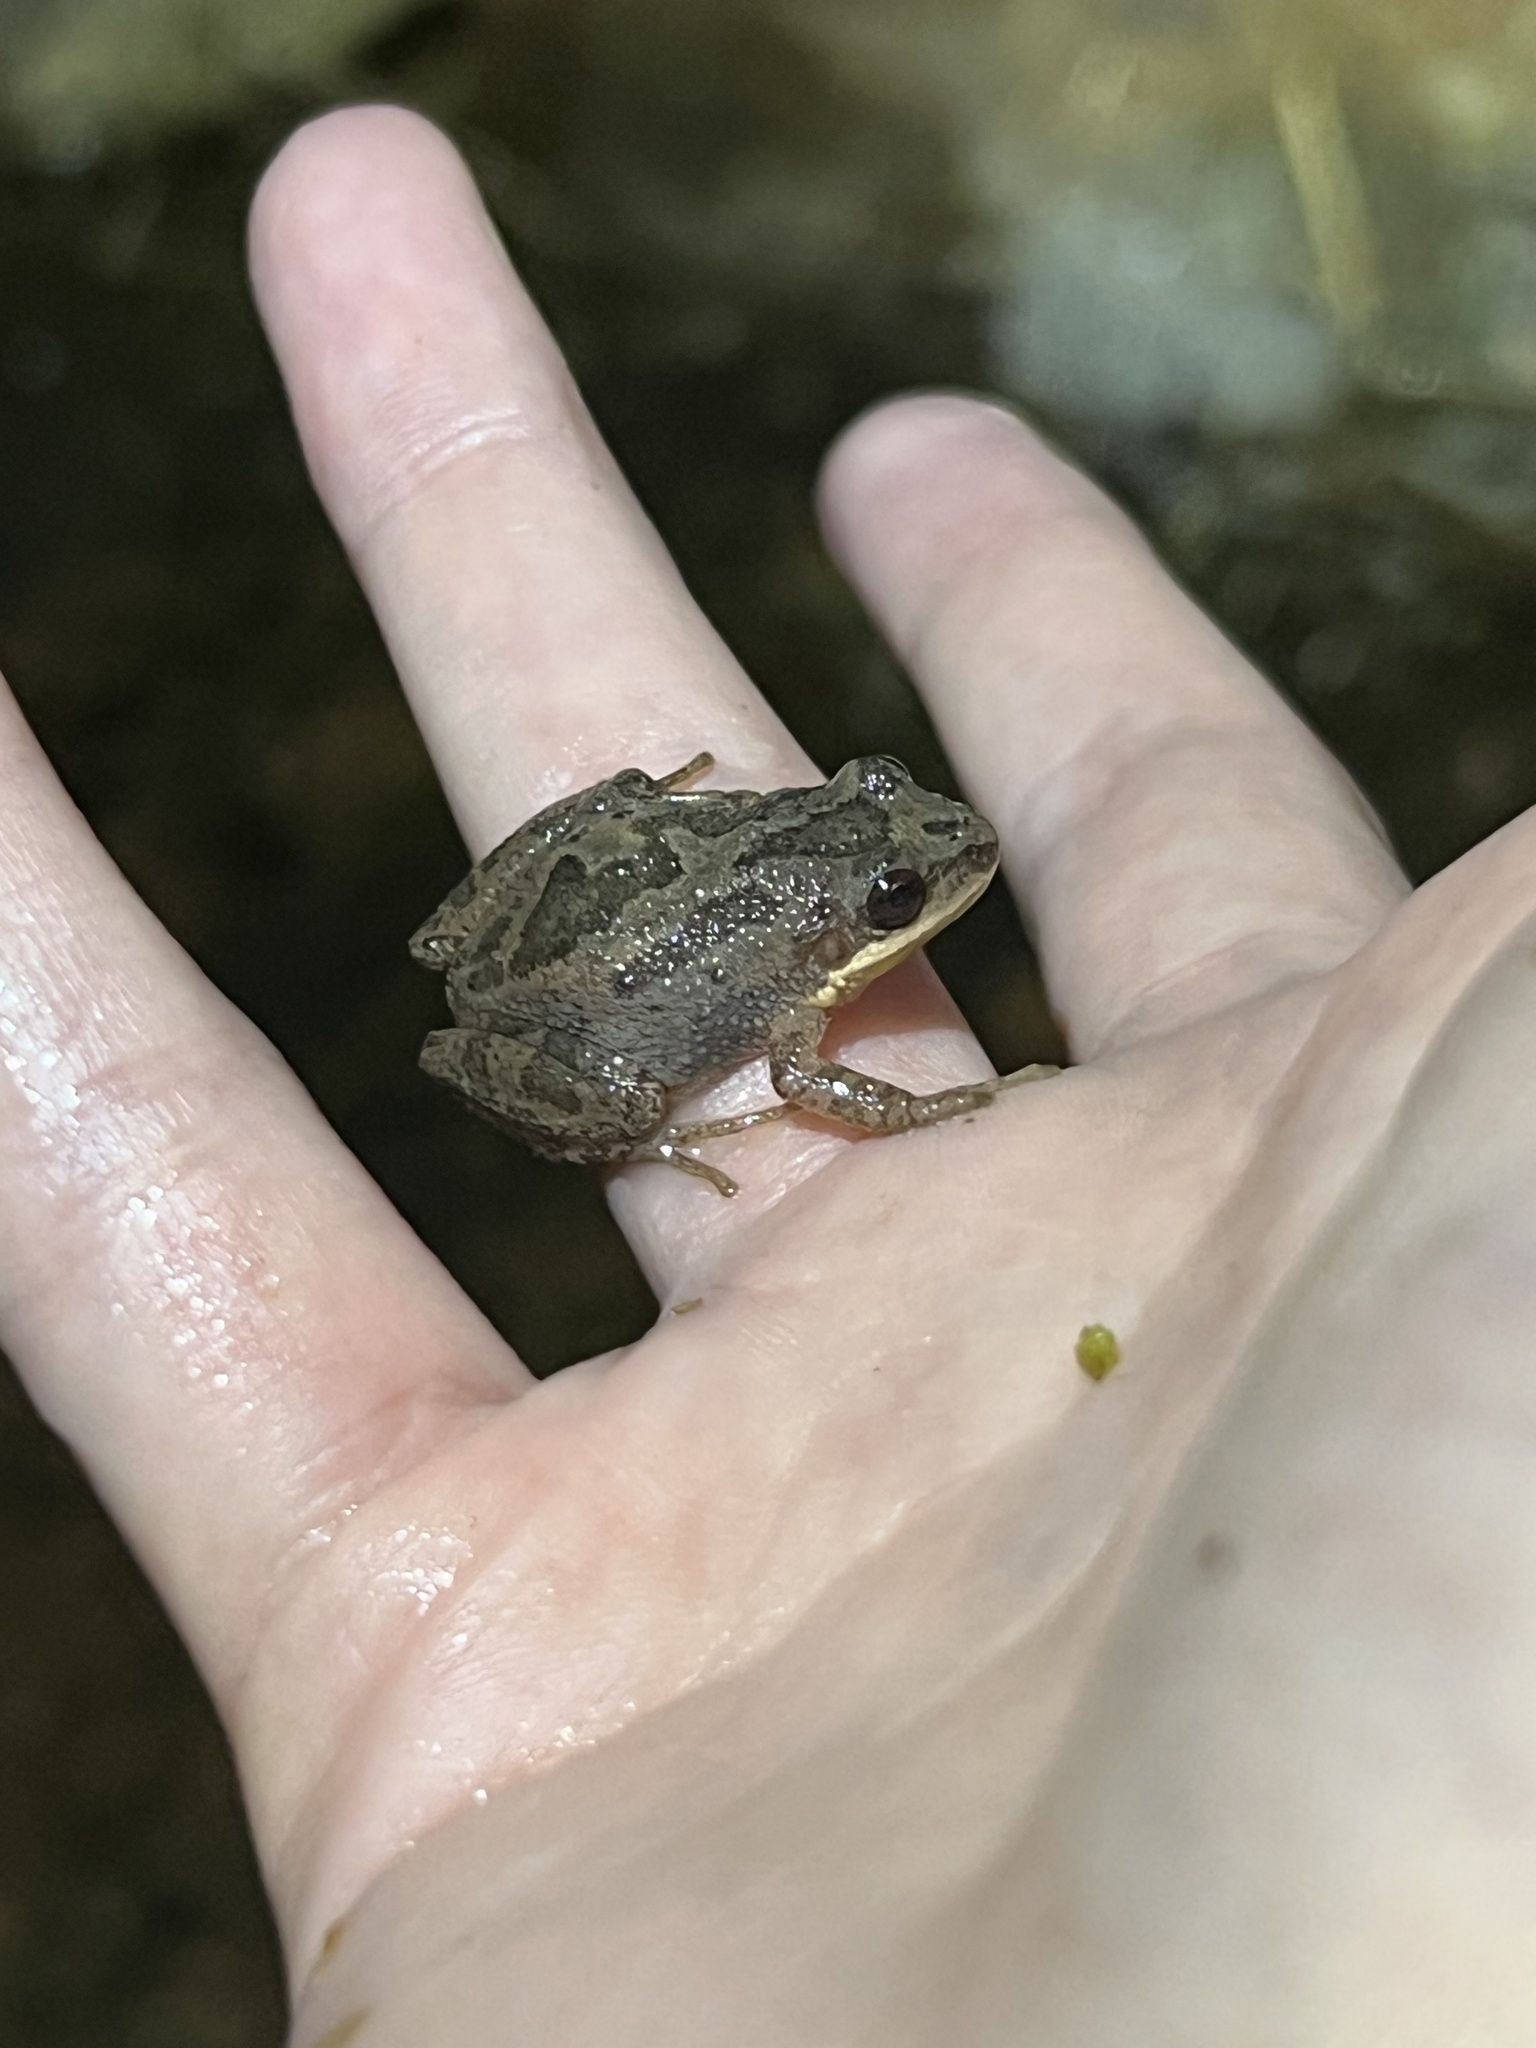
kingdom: Animalia
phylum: Chordata
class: Amphibia
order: Anura
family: Hylidae
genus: Pseudacris
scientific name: Pseudacris feriarum
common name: Upland chorus frog
